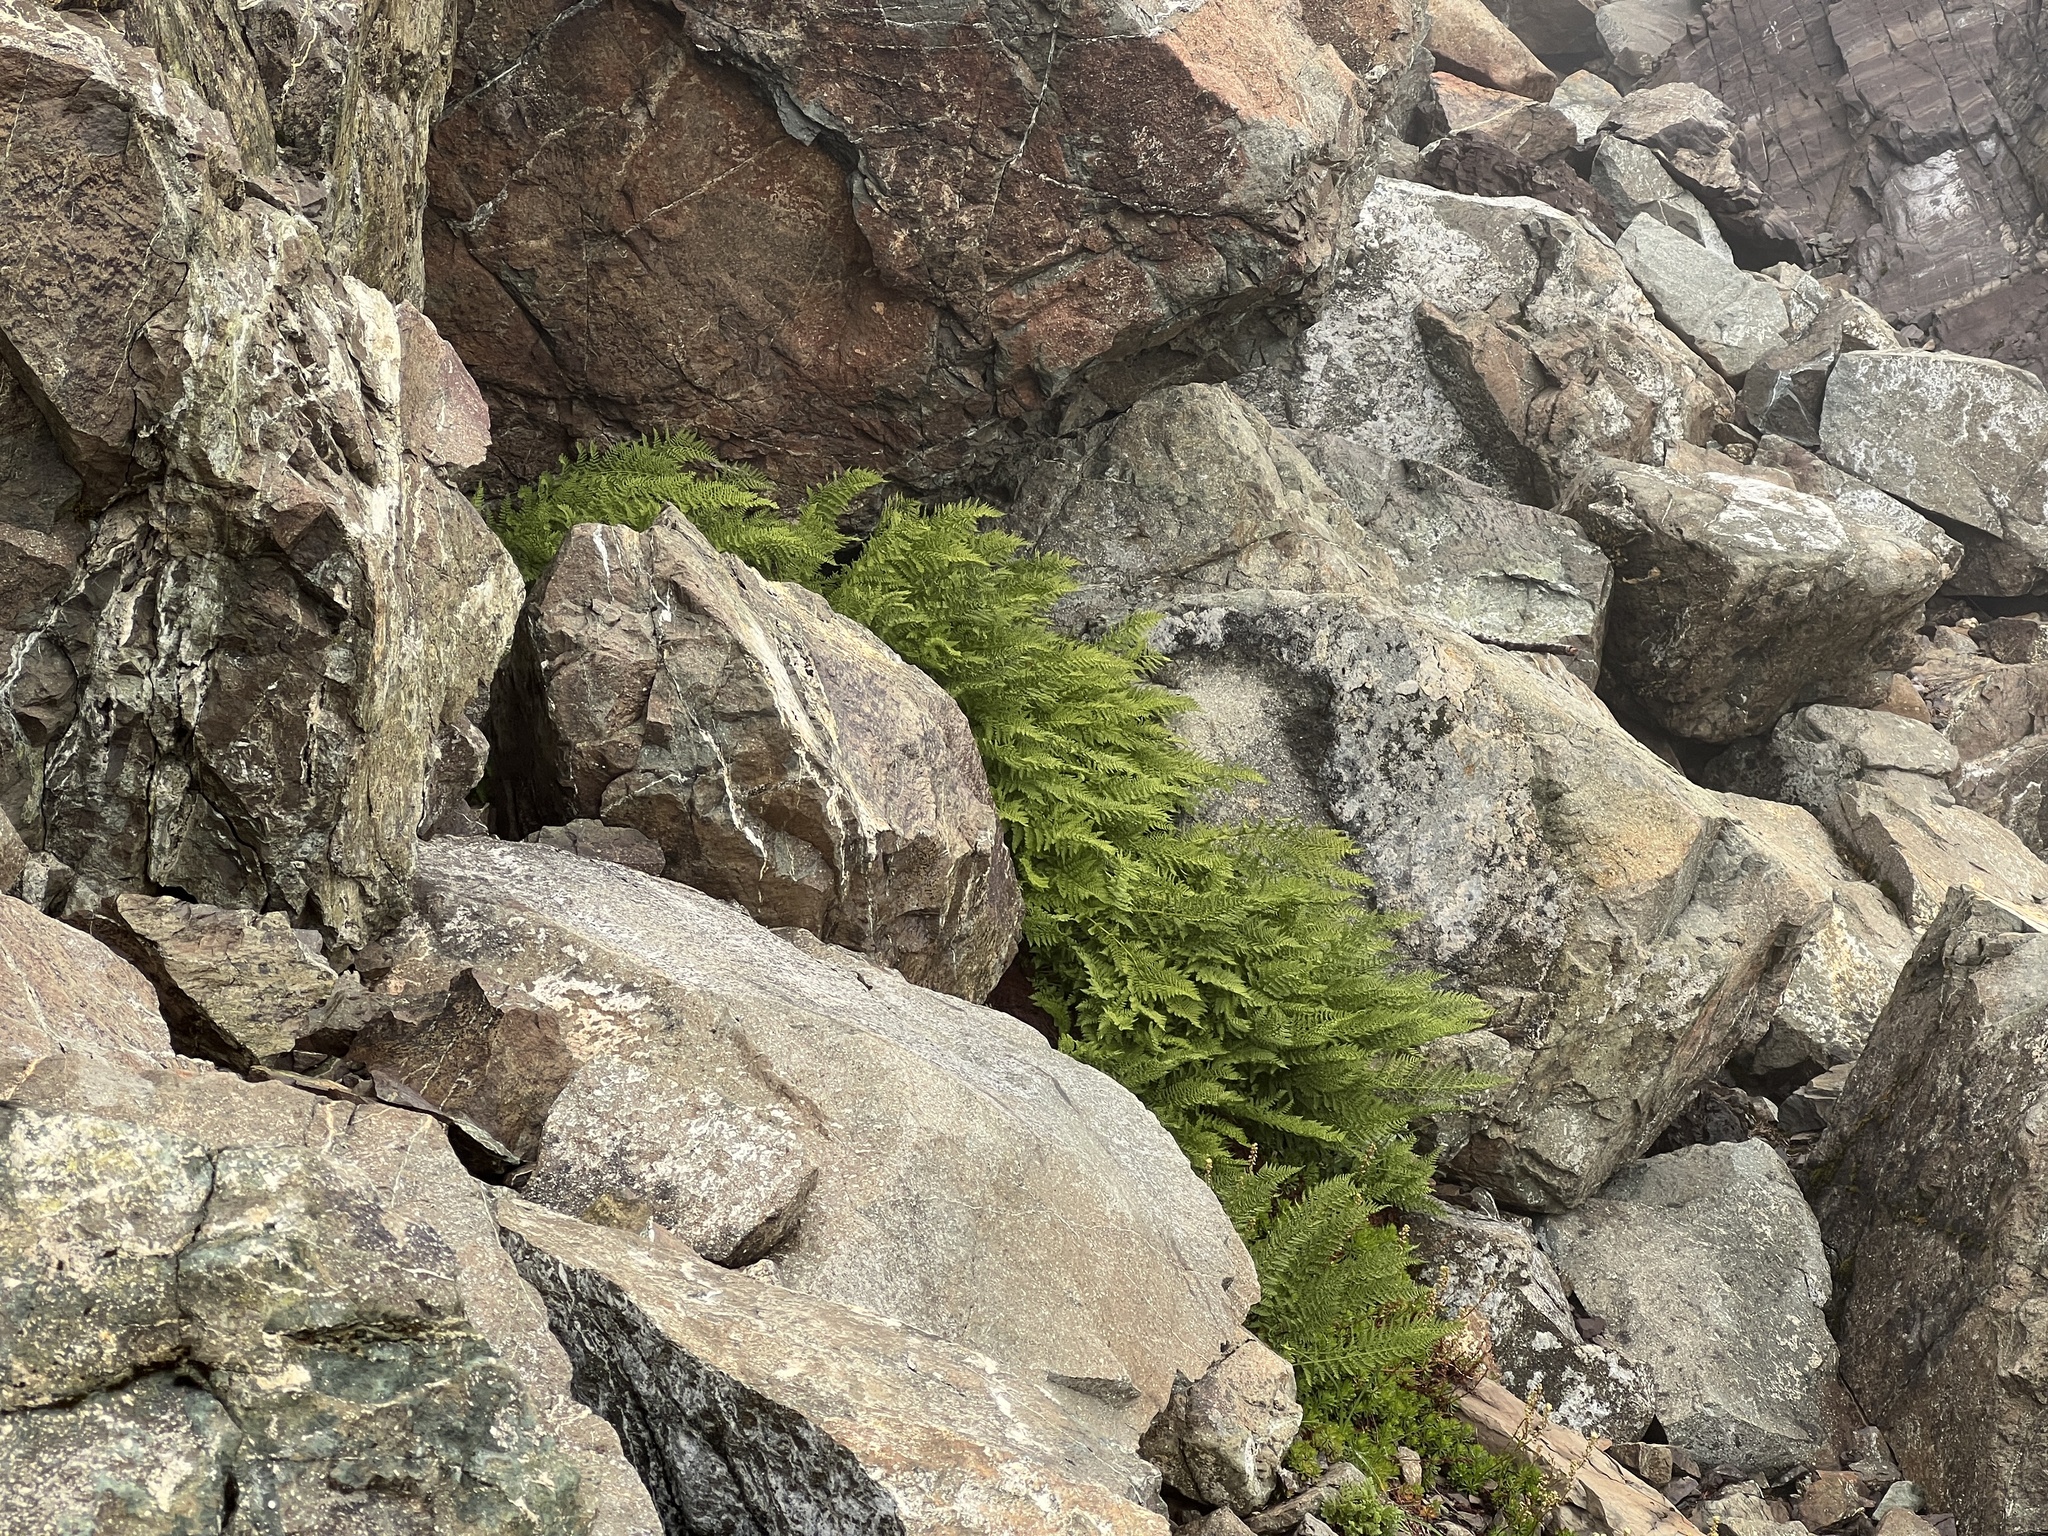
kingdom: Plantae
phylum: Tracheophyta
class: Polypodiopsida
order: Polypodiales
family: Athyriaceae
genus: Athyrium
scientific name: Athyrium americanum
